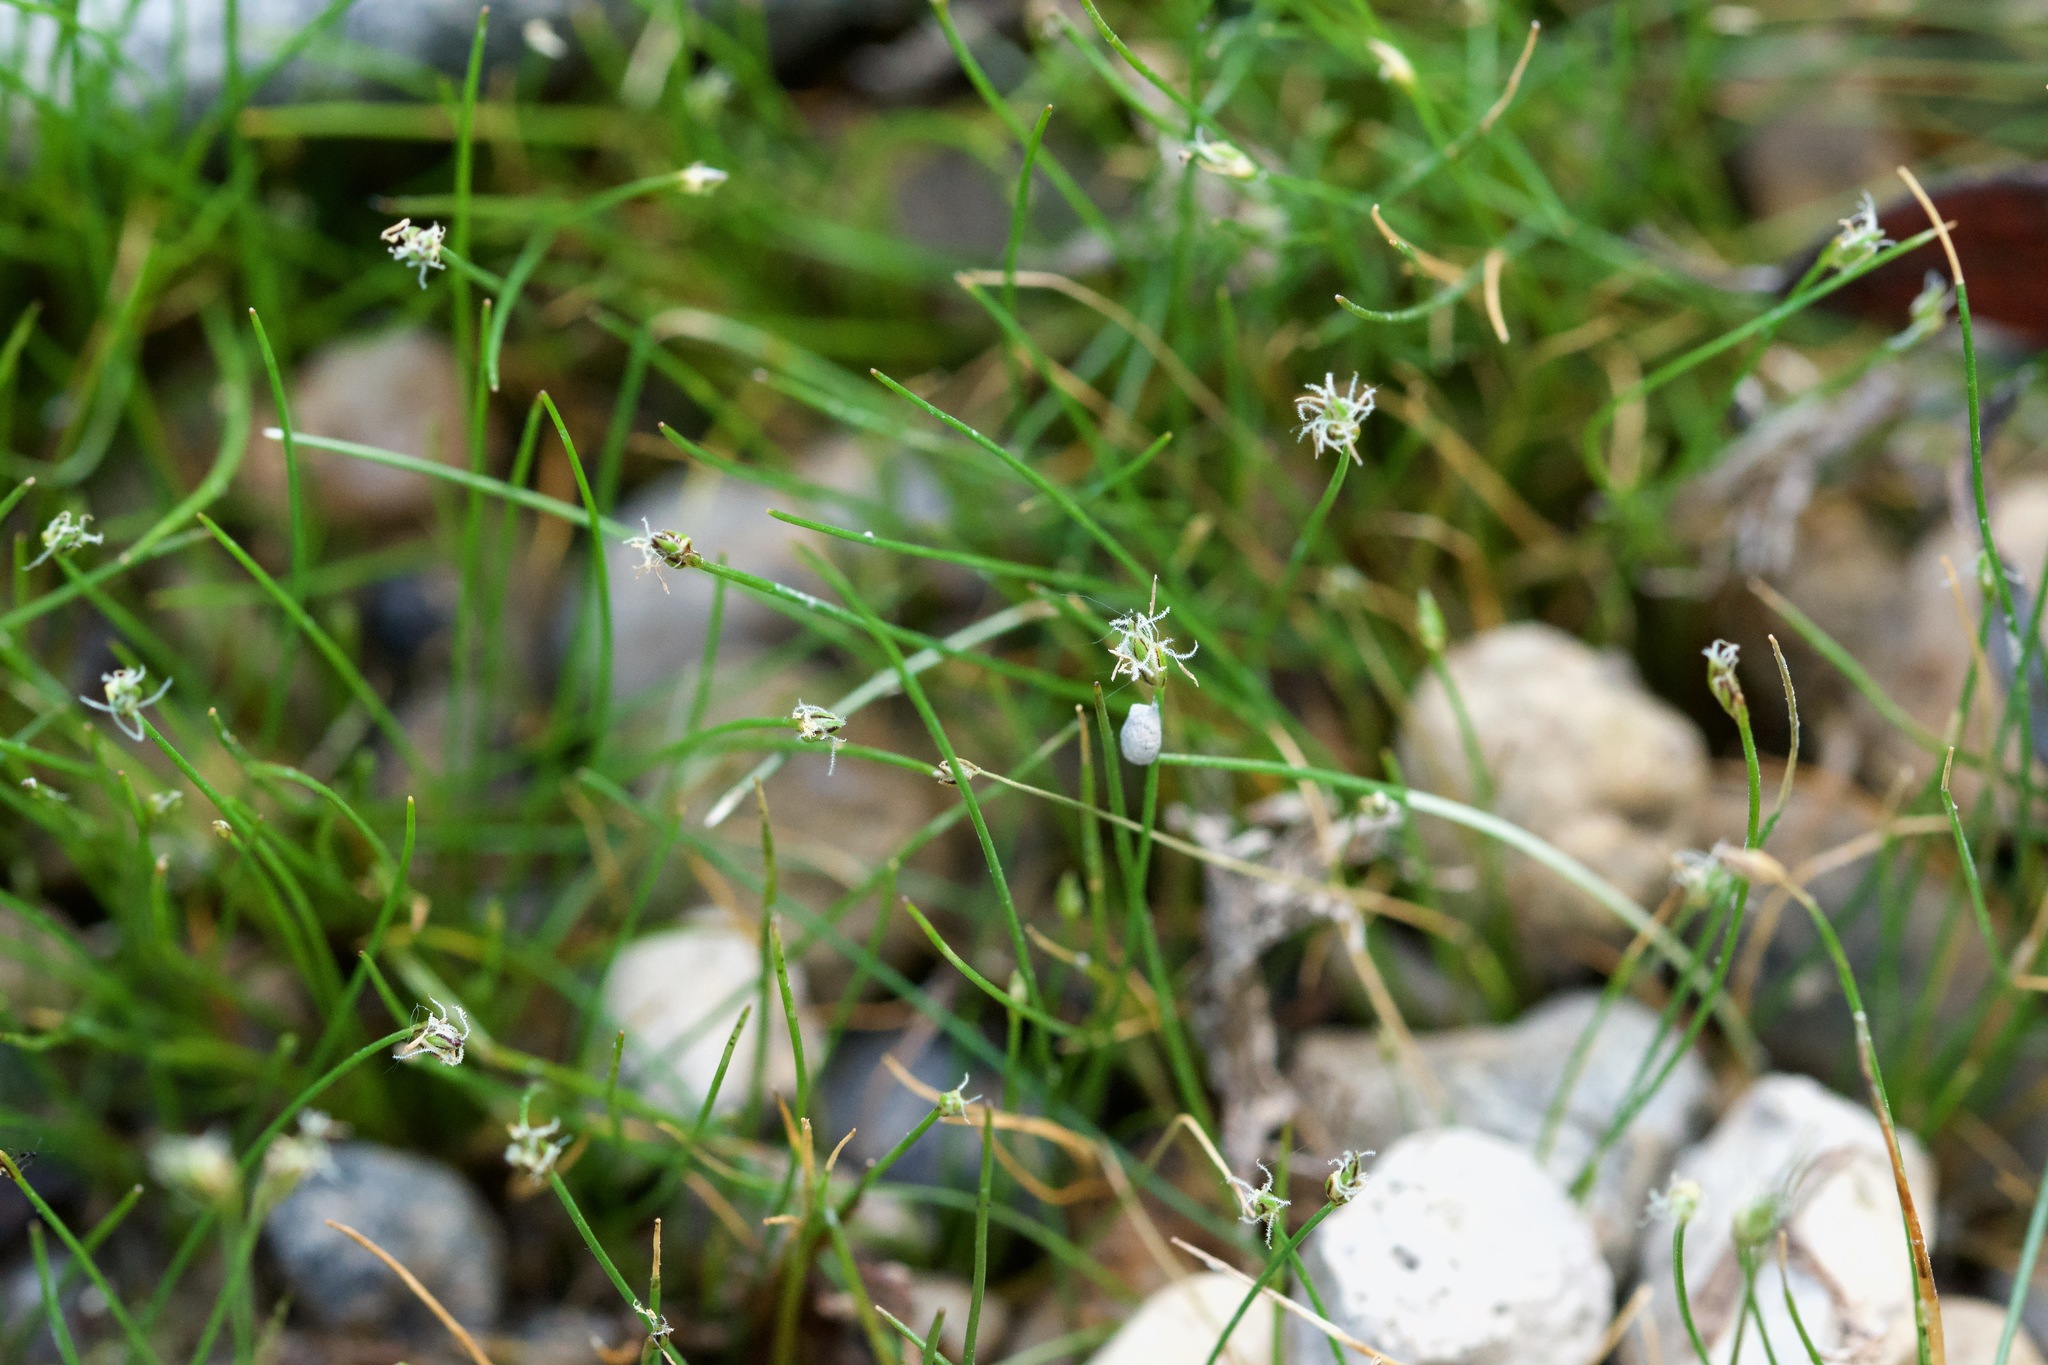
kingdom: Plantae
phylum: Tracheophyta
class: Liliopsida
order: Poales
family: Cyperaceae
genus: Eleocharis
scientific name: Eleocharis acicularis
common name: Needle spike-rush
